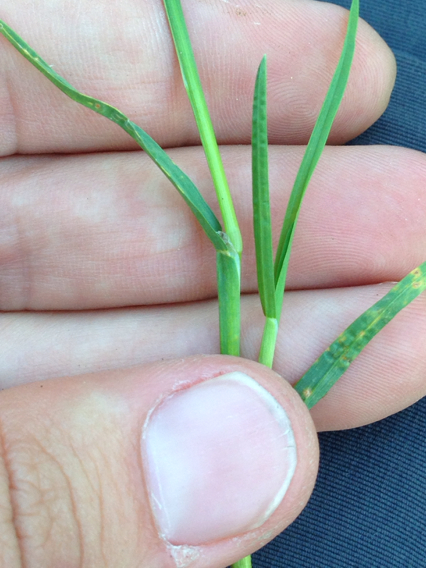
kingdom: Plantae
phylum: Tracheophyta
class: Liliopsida
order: Poales
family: Poaceae
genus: Poa
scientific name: Poa annua
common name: Annual bluegrass
